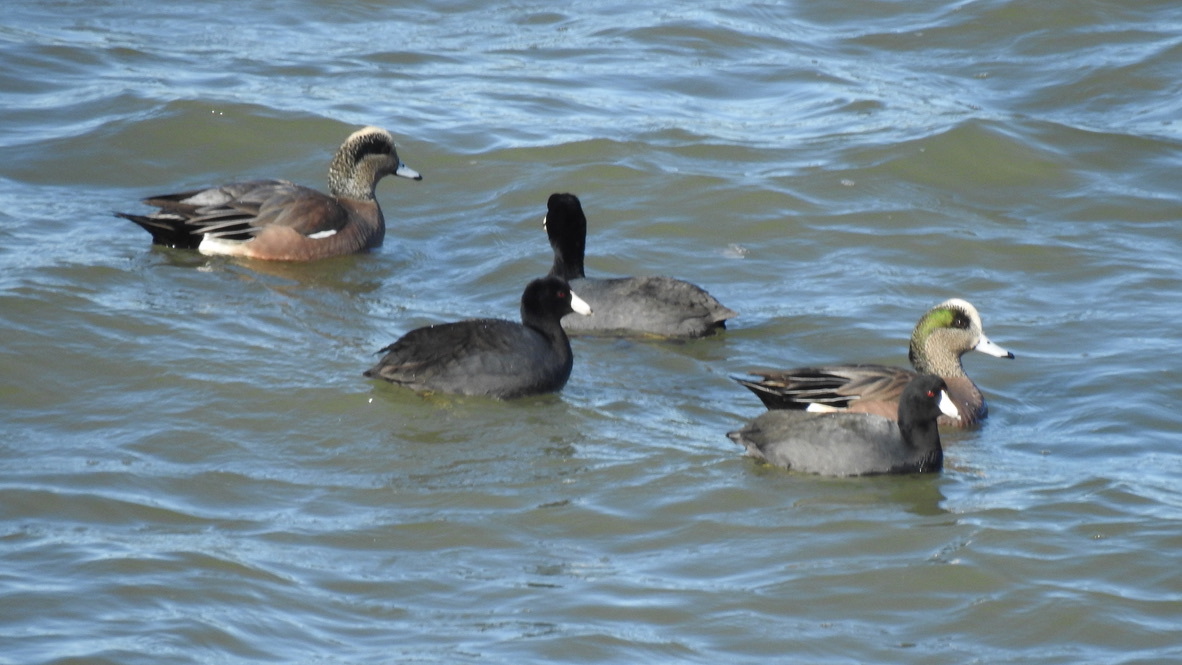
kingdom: Animalia
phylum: Chordata
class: Aves
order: Gruiformes
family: Rallidae
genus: Fulica
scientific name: Fulica americana
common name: American coot
